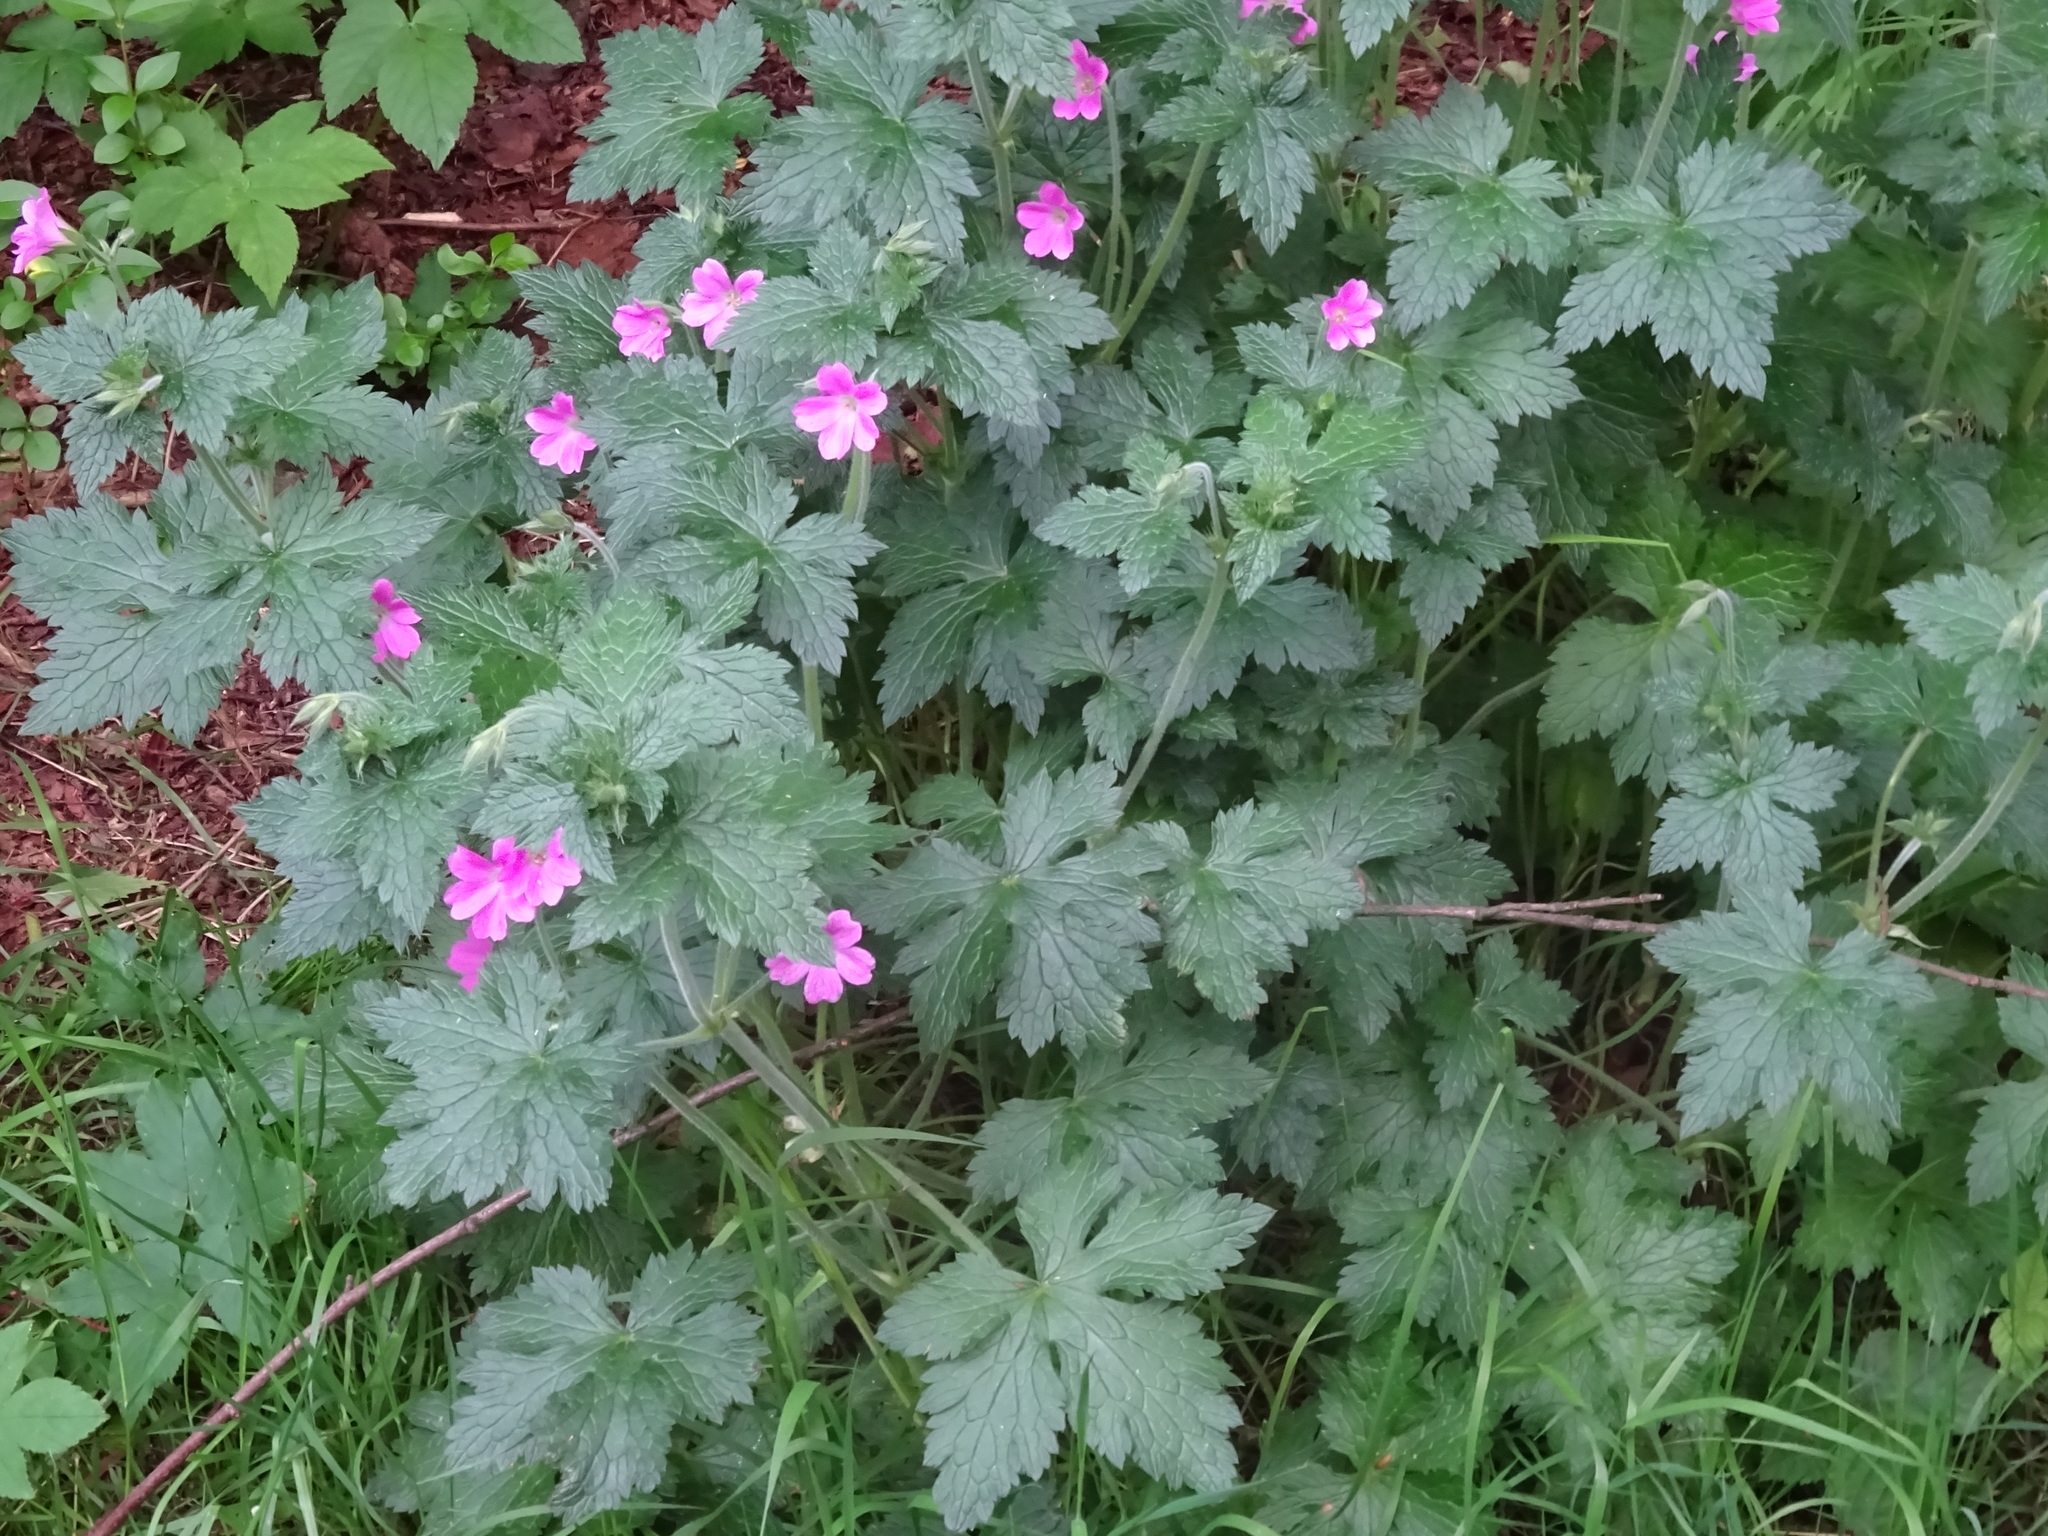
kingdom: Plantae
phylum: Tracheophyta
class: Magnoliopsida
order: Geraniales
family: Geraniaceae
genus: Geranium
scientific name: Geranium oxonianum
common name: Druce's crane's-bill
